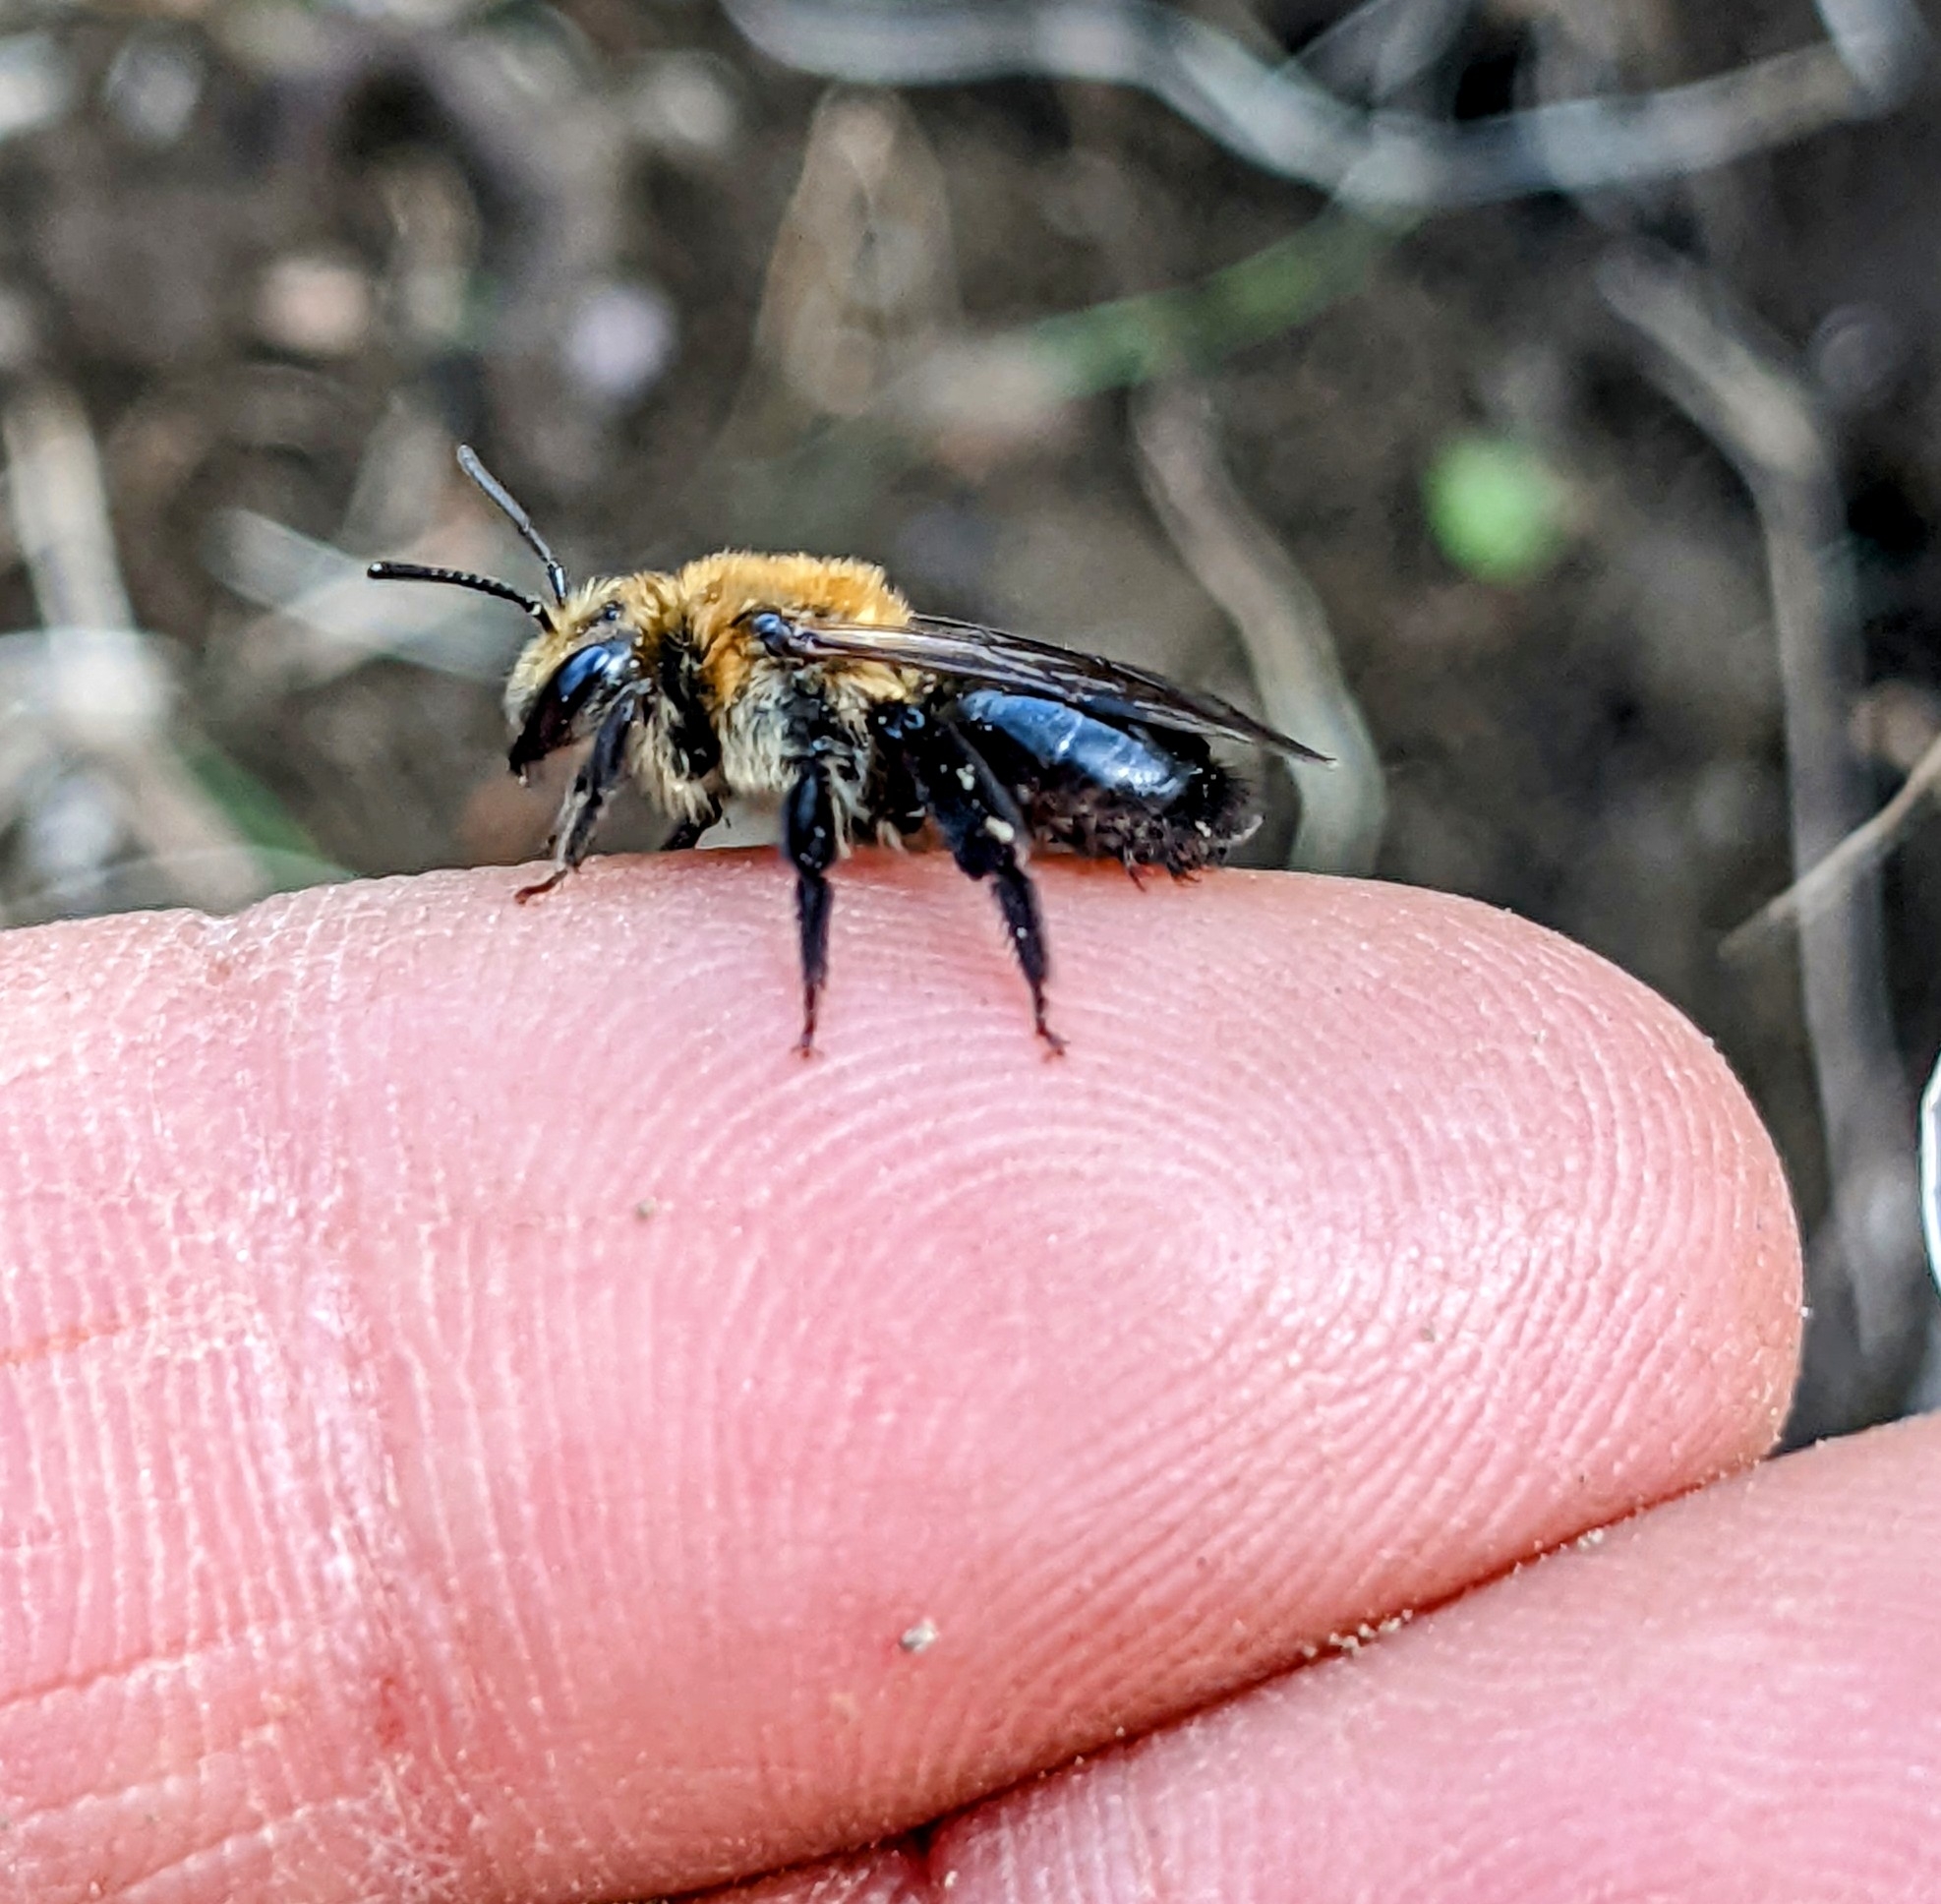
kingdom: Animalia
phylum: Arthropoda
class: Insecta
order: Hymenoptera
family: Andrenidae
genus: Andrena
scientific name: Andrena vicina
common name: Neighborly mining bee
